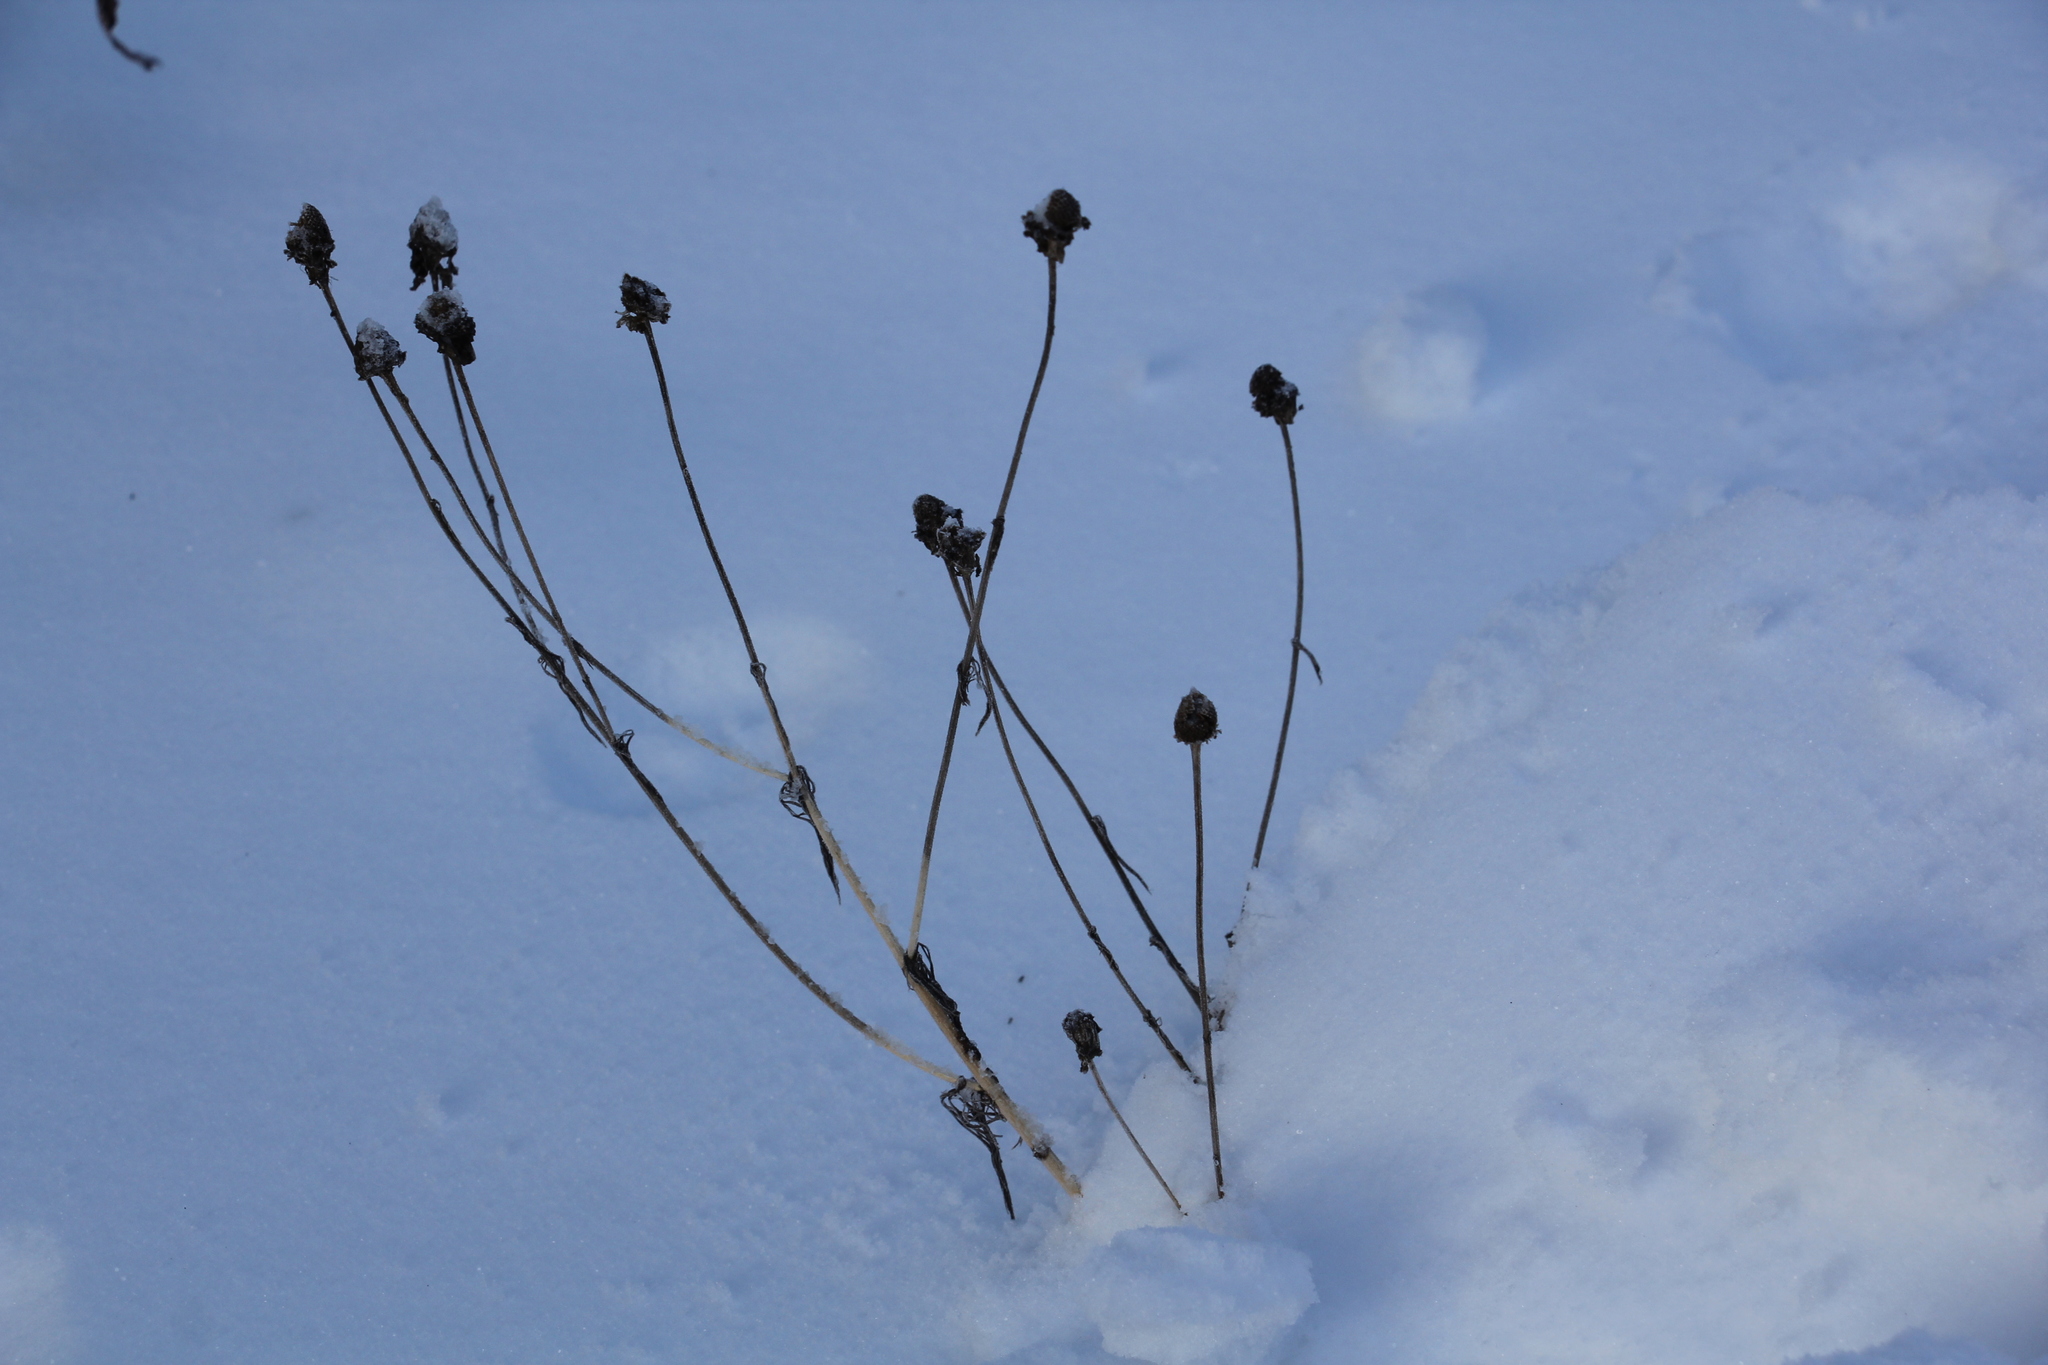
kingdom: Plantae
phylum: Tracheophyta
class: Magnoliopsida
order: Asterales
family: Asteraceae
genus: Tripleurospermum
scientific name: Tripleurospermum inodorum
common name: Scentless mayweed
